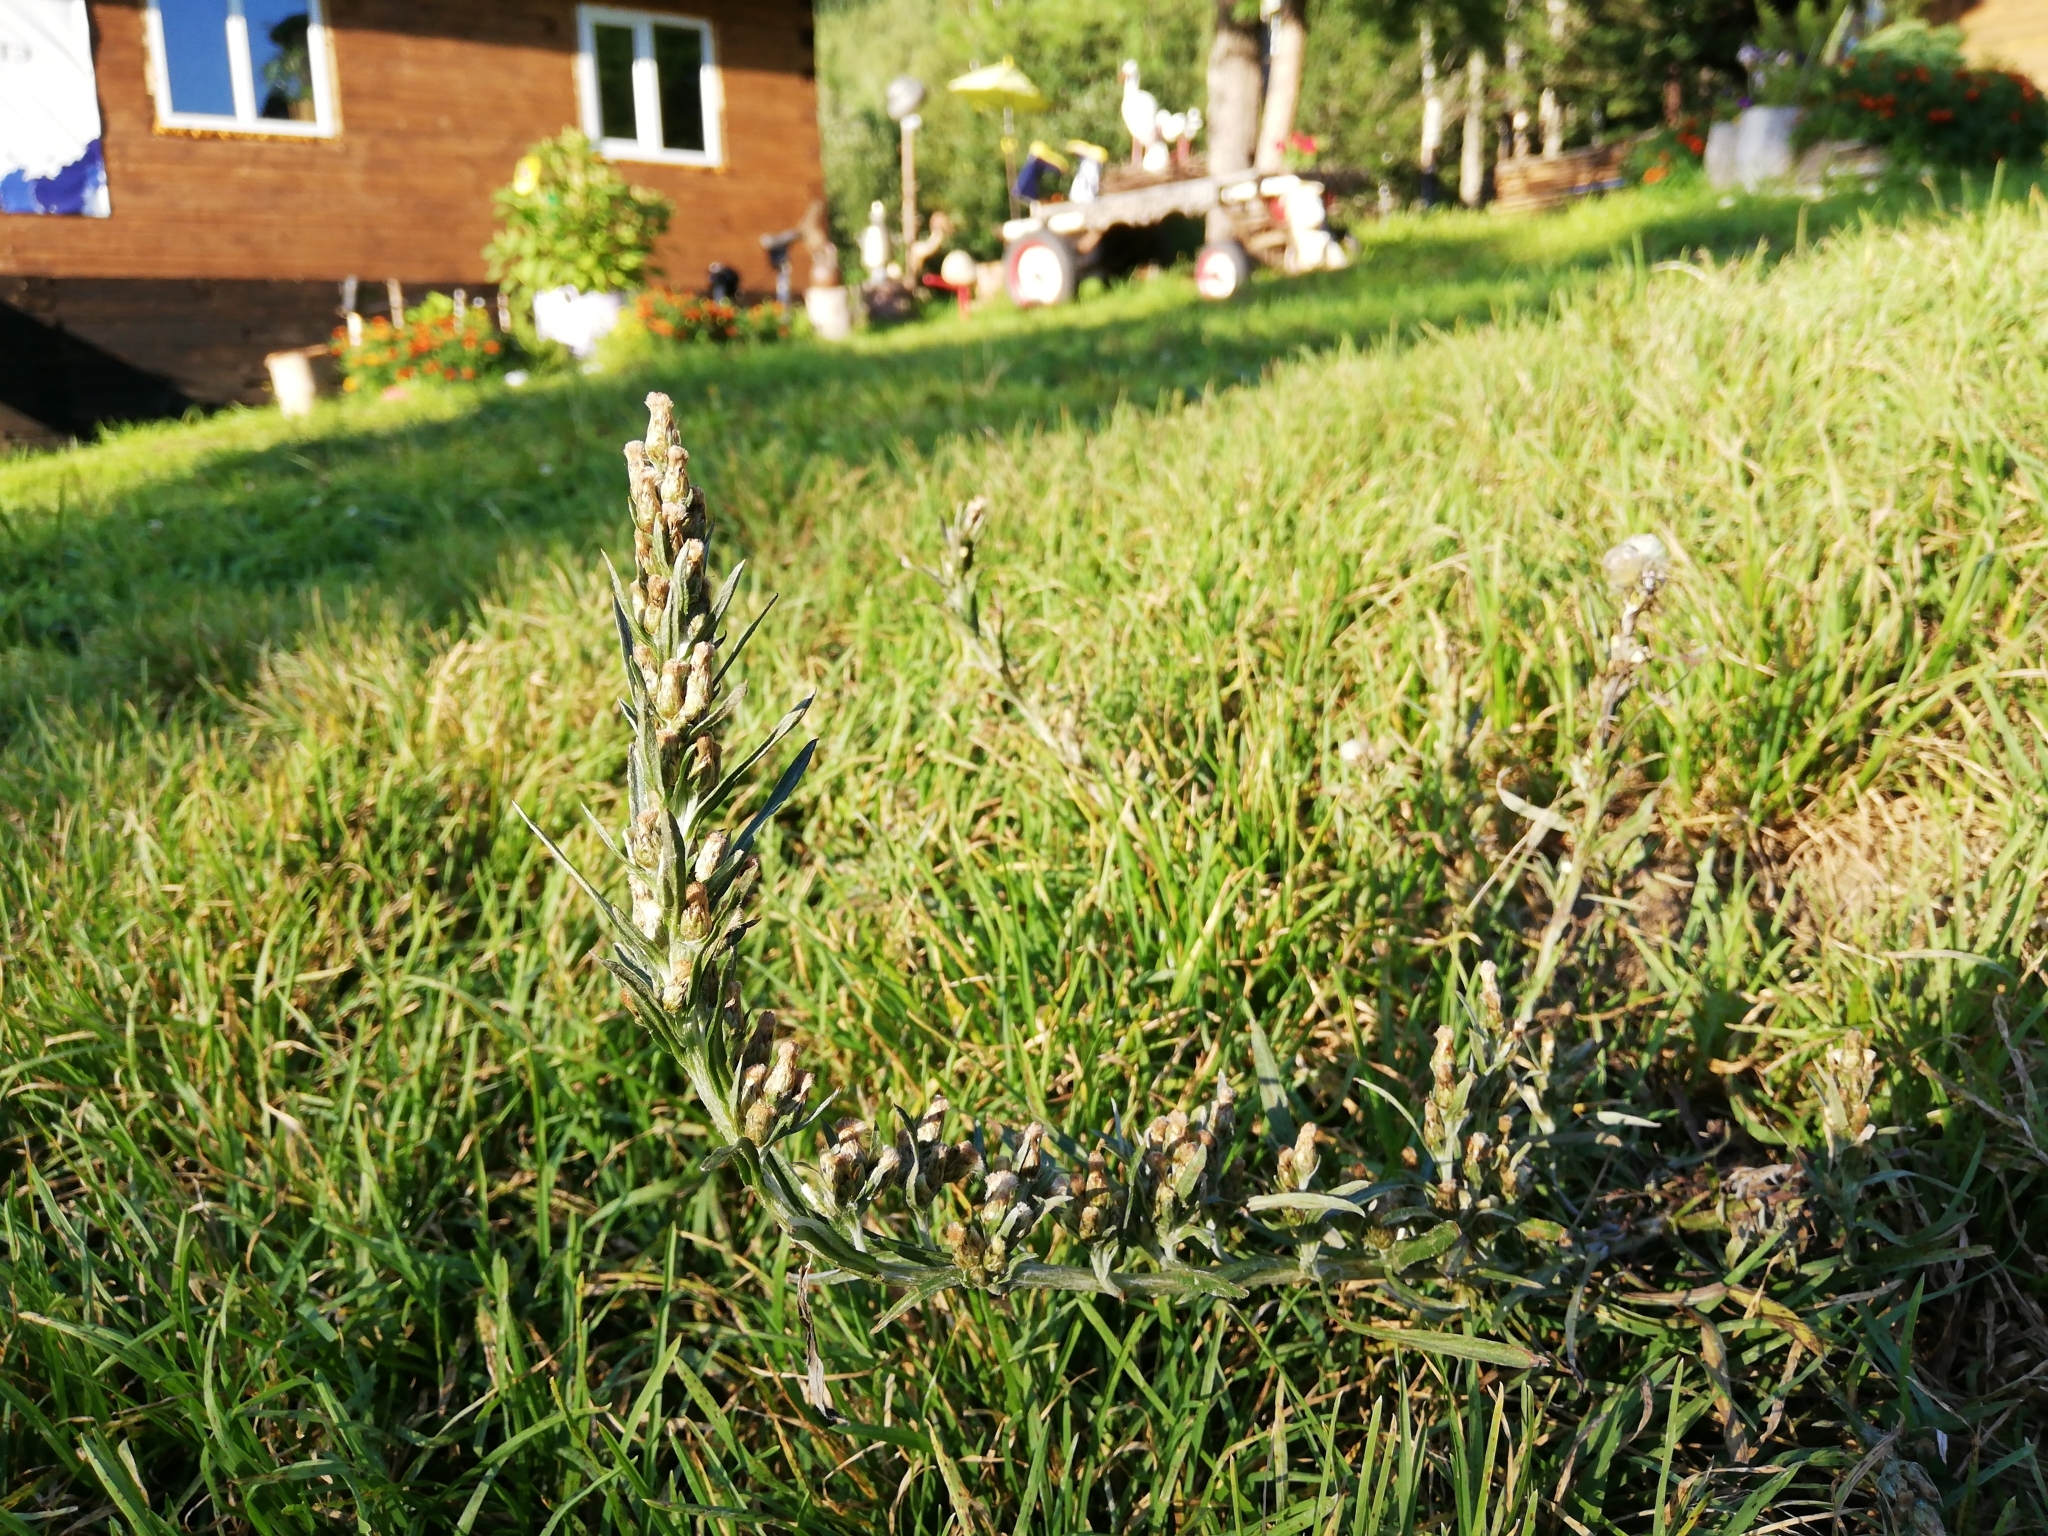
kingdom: Plantae
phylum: Tracheophyta
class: Magnoliopsida
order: Asterales
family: Asteraceae
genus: Omalotheca
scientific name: Omalotheca sylvatica
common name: Heath cudweed
